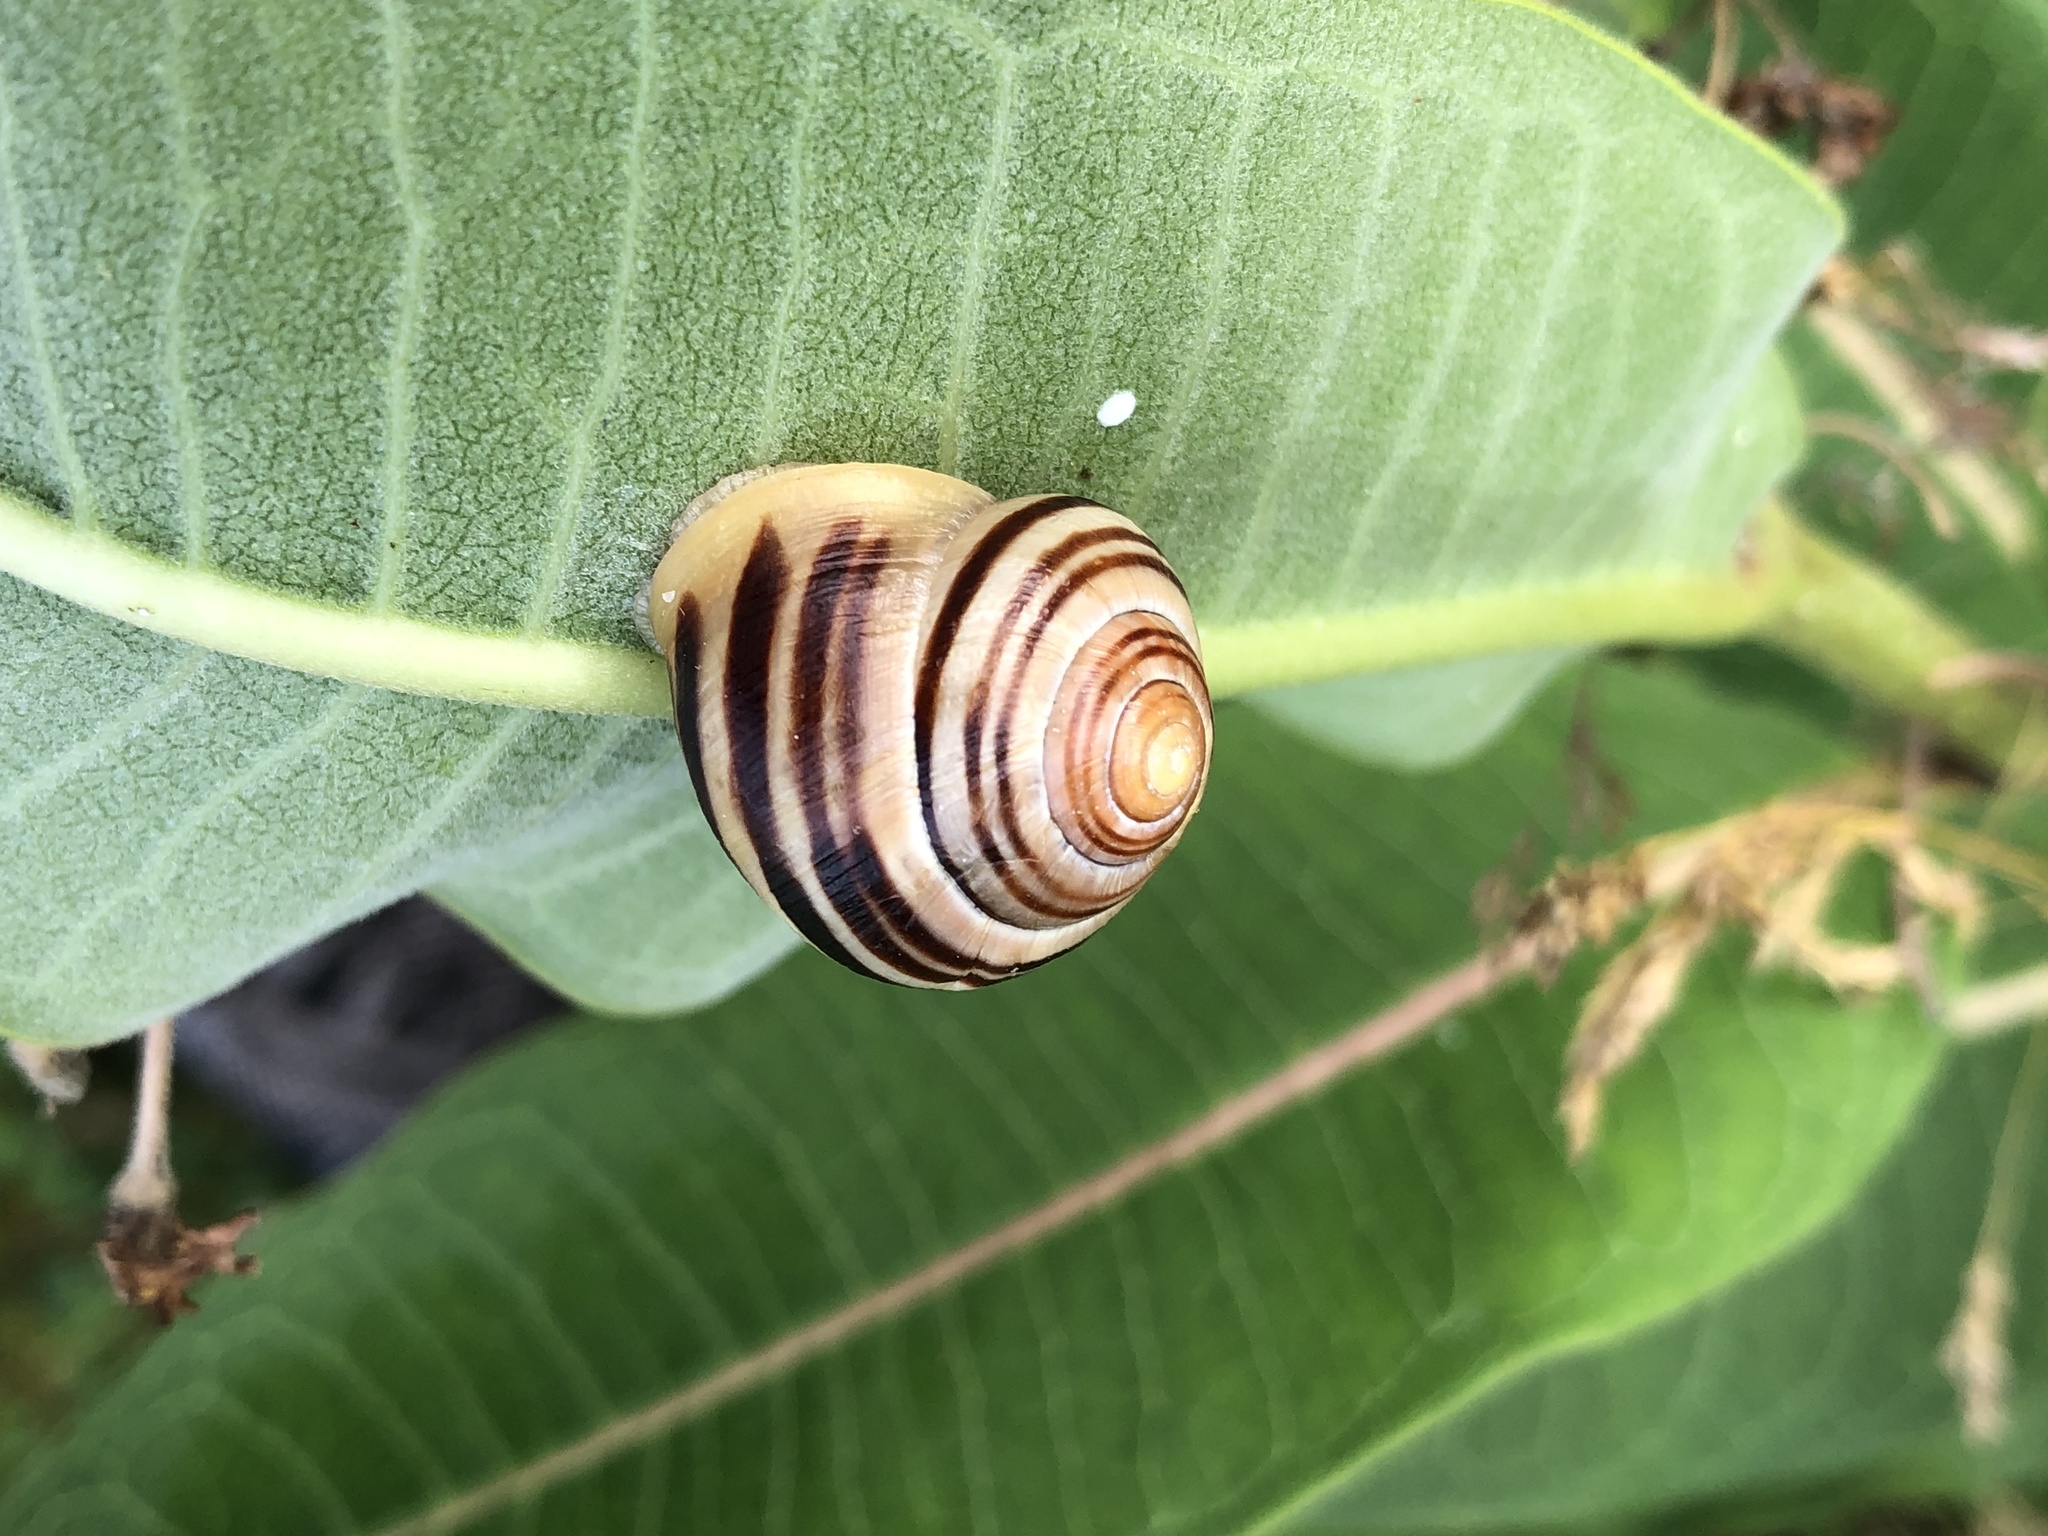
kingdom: Animalia
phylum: Mollusca
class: Gastropoda
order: Stylommatophora
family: Helicidae
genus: Cepaea
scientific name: Cepaea hortensis
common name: White-lip gardensnail
